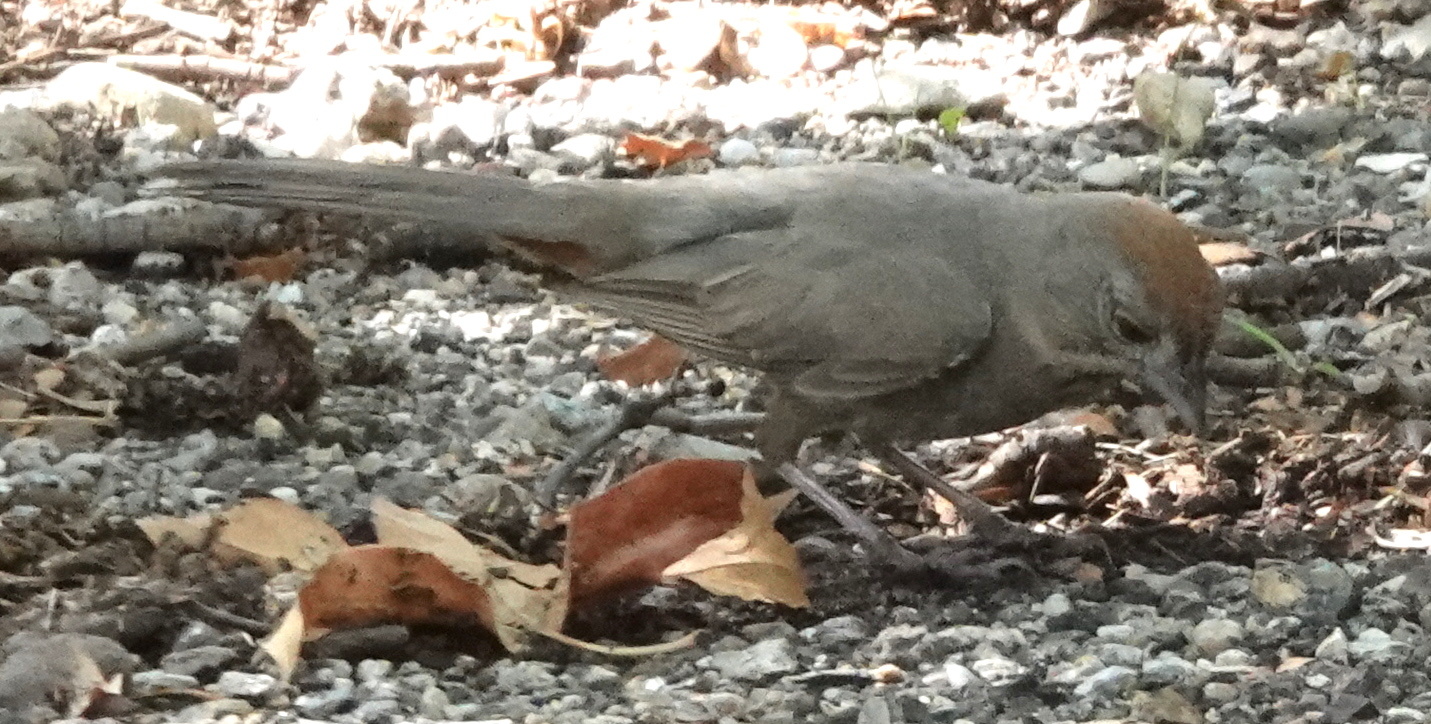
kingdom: Animalia
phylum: Chordata
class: Aves
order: Passeriformes
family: Passerellidae
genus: Melozone
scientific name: Melozone fusca
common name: Canyon towhee
